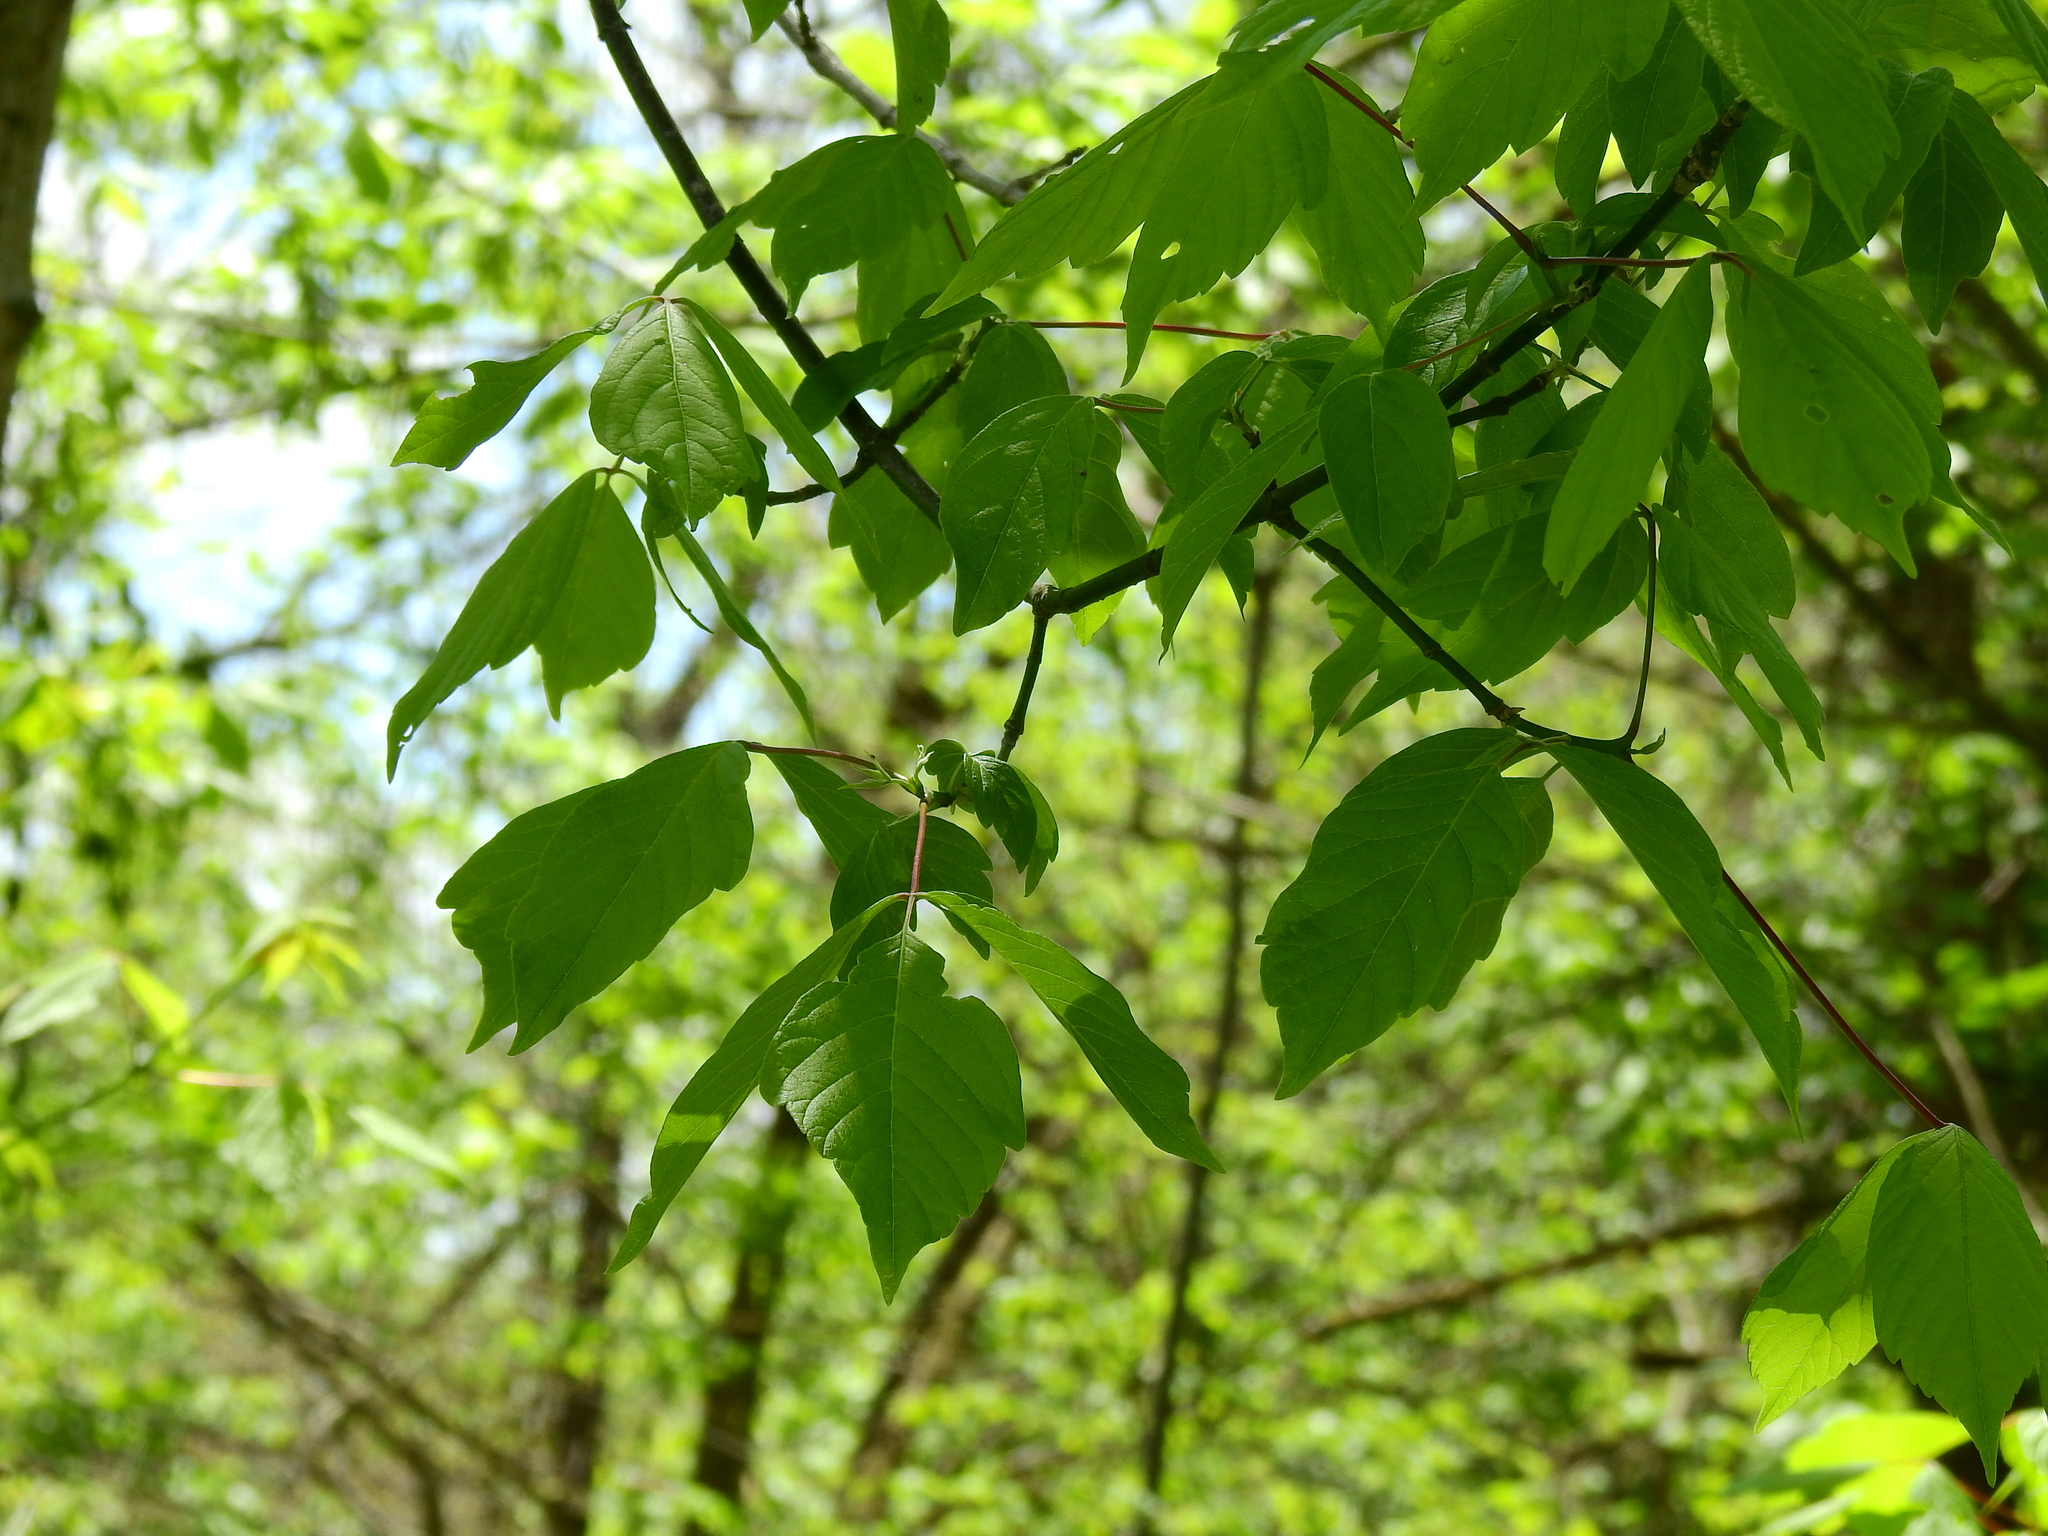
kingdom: Plantae
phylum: Tracheophyta
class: Magnoliopsida
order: Sapindales
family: Sapindaceae
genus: Acer
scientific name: Acer negundo
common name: Ashleaf maple
